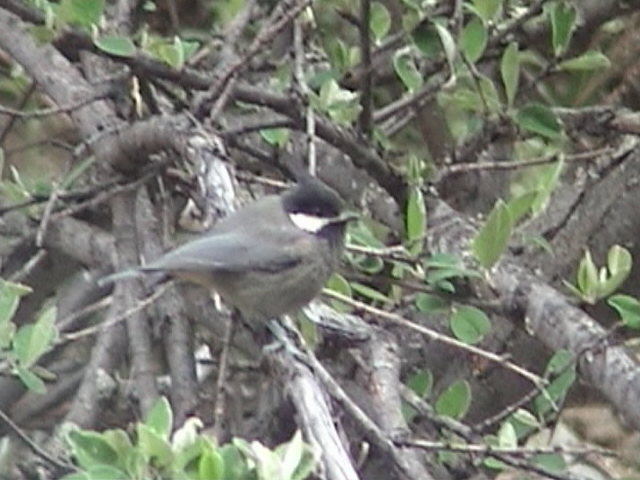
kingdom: Animalia
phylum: Chordata
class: Aves
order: Passeriformes
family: Paridae
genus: Periparus
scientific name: Periparus rubidiventris
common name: Rufous-vented tit
